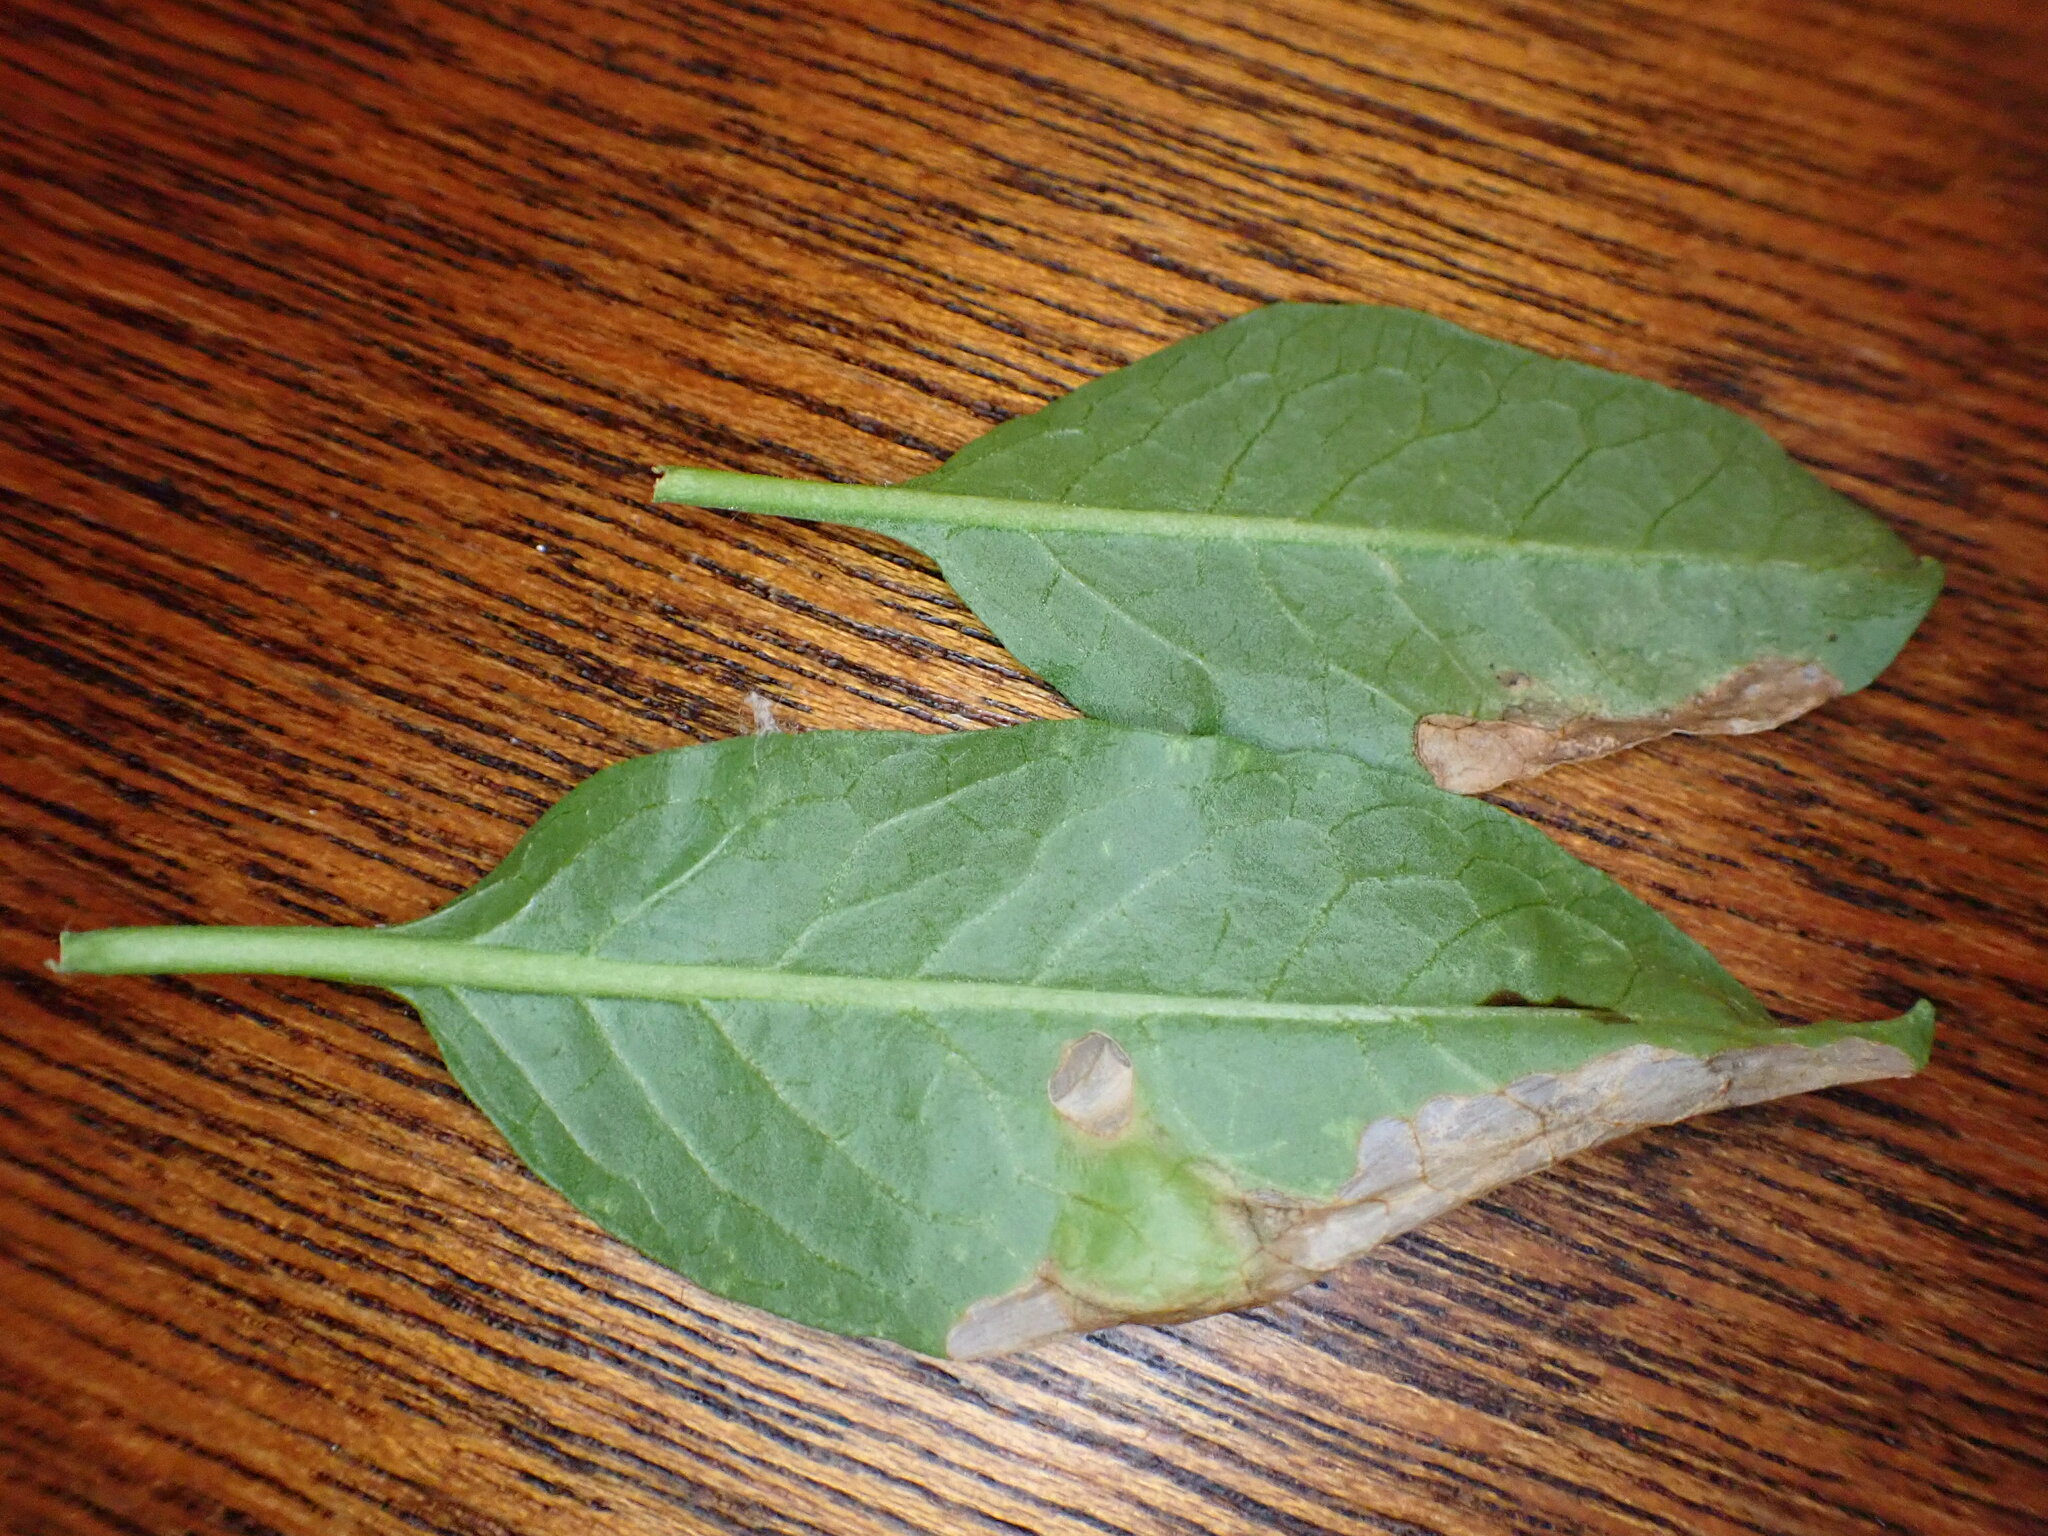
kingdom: Animalia
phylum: Arthropoda
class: Insecta
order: Lepidoptera
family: Glyphipterigidae
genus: Acrolepia
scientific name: Acrolepia pygmaeana
